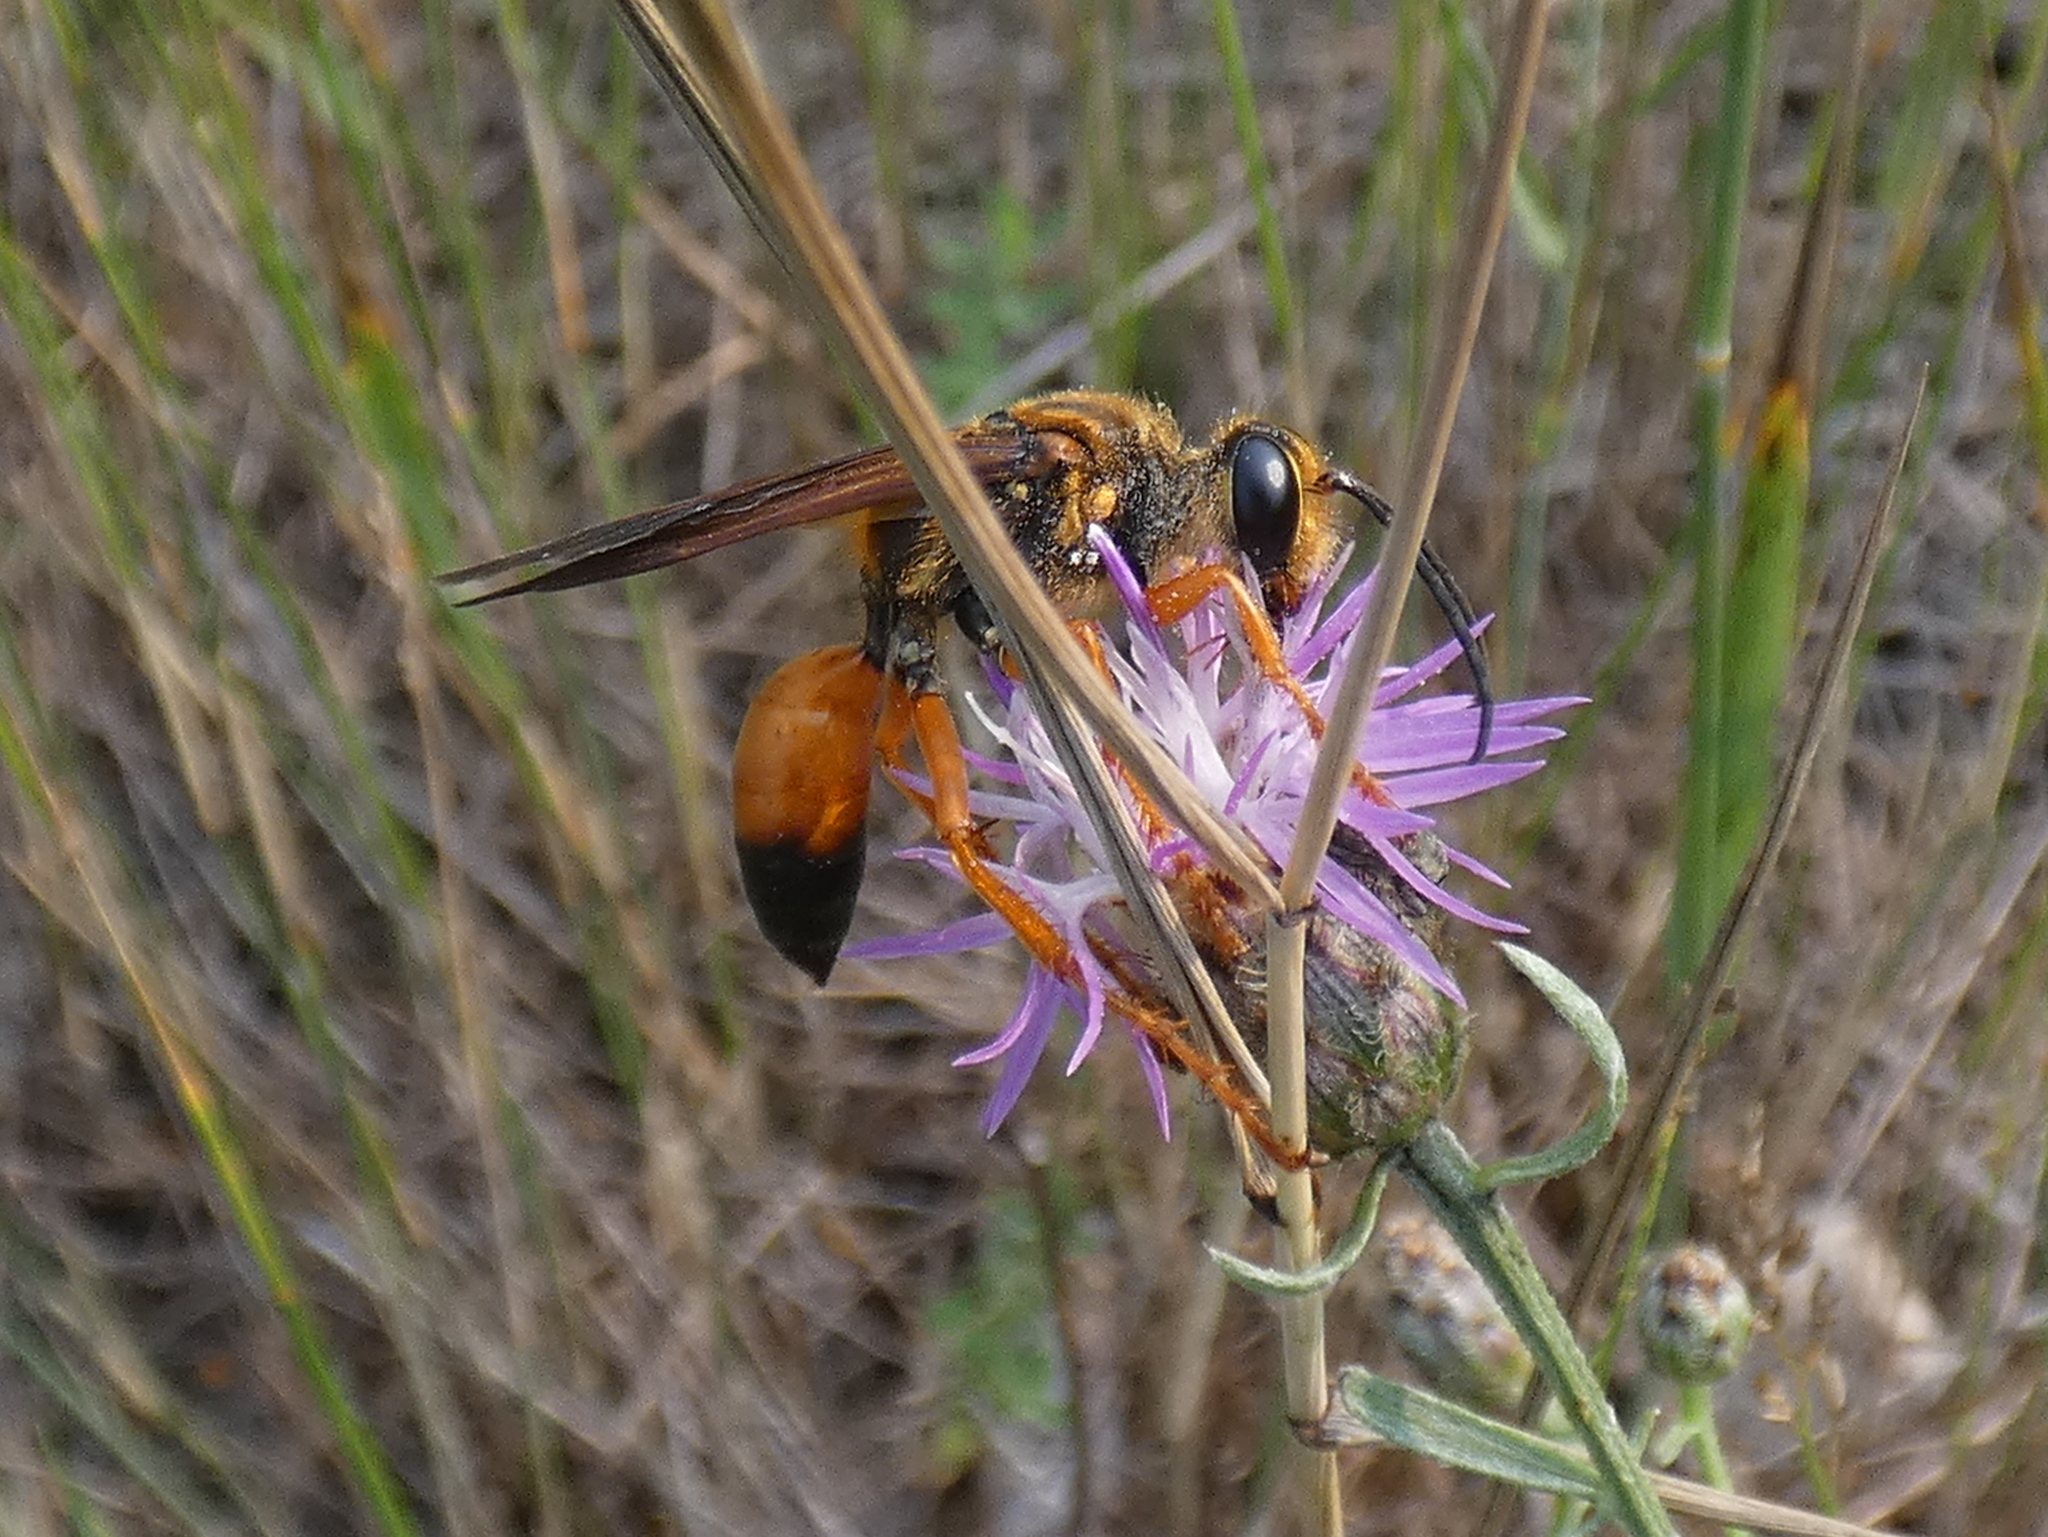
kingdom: Animalia
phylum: Arthropoda
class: Insecta
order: Hymenoptera
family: Sphecidae
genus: Sphex
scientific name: Sphex ichneumoneus
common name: Great golden digger wasp
